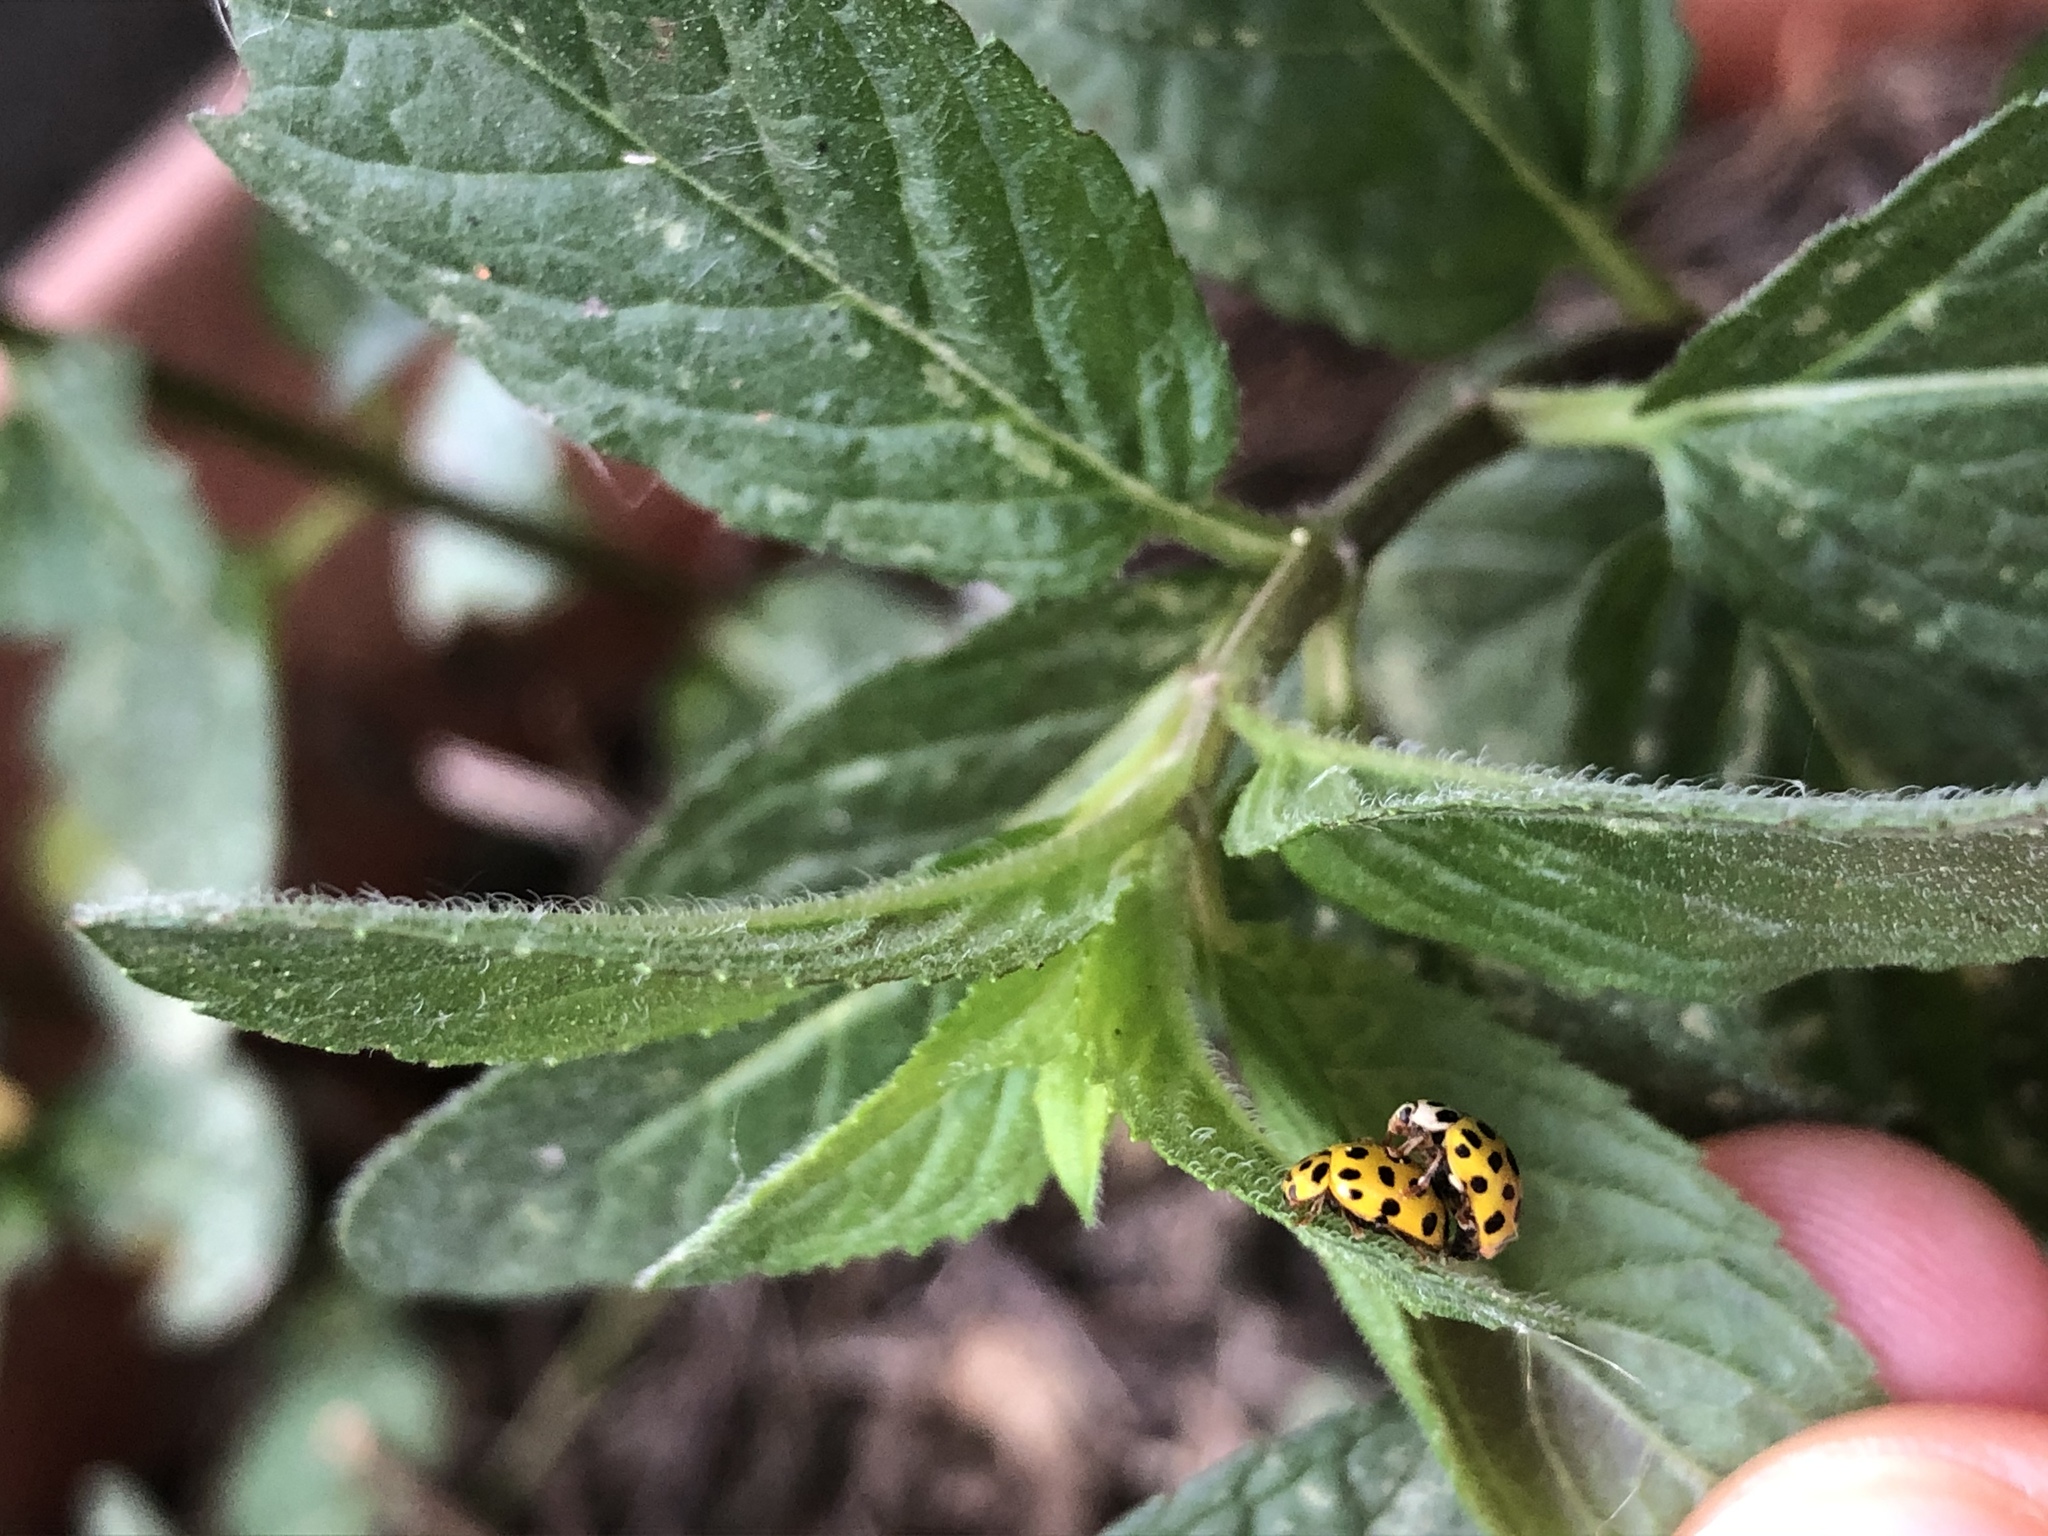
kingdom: Animalia
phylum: Arthropoda
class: Insecta
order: Coleoptera
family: Coccinellidae
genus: Psyllobora
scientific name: Psyllobora vigintiduopunctata
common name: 22-spot ladybird
